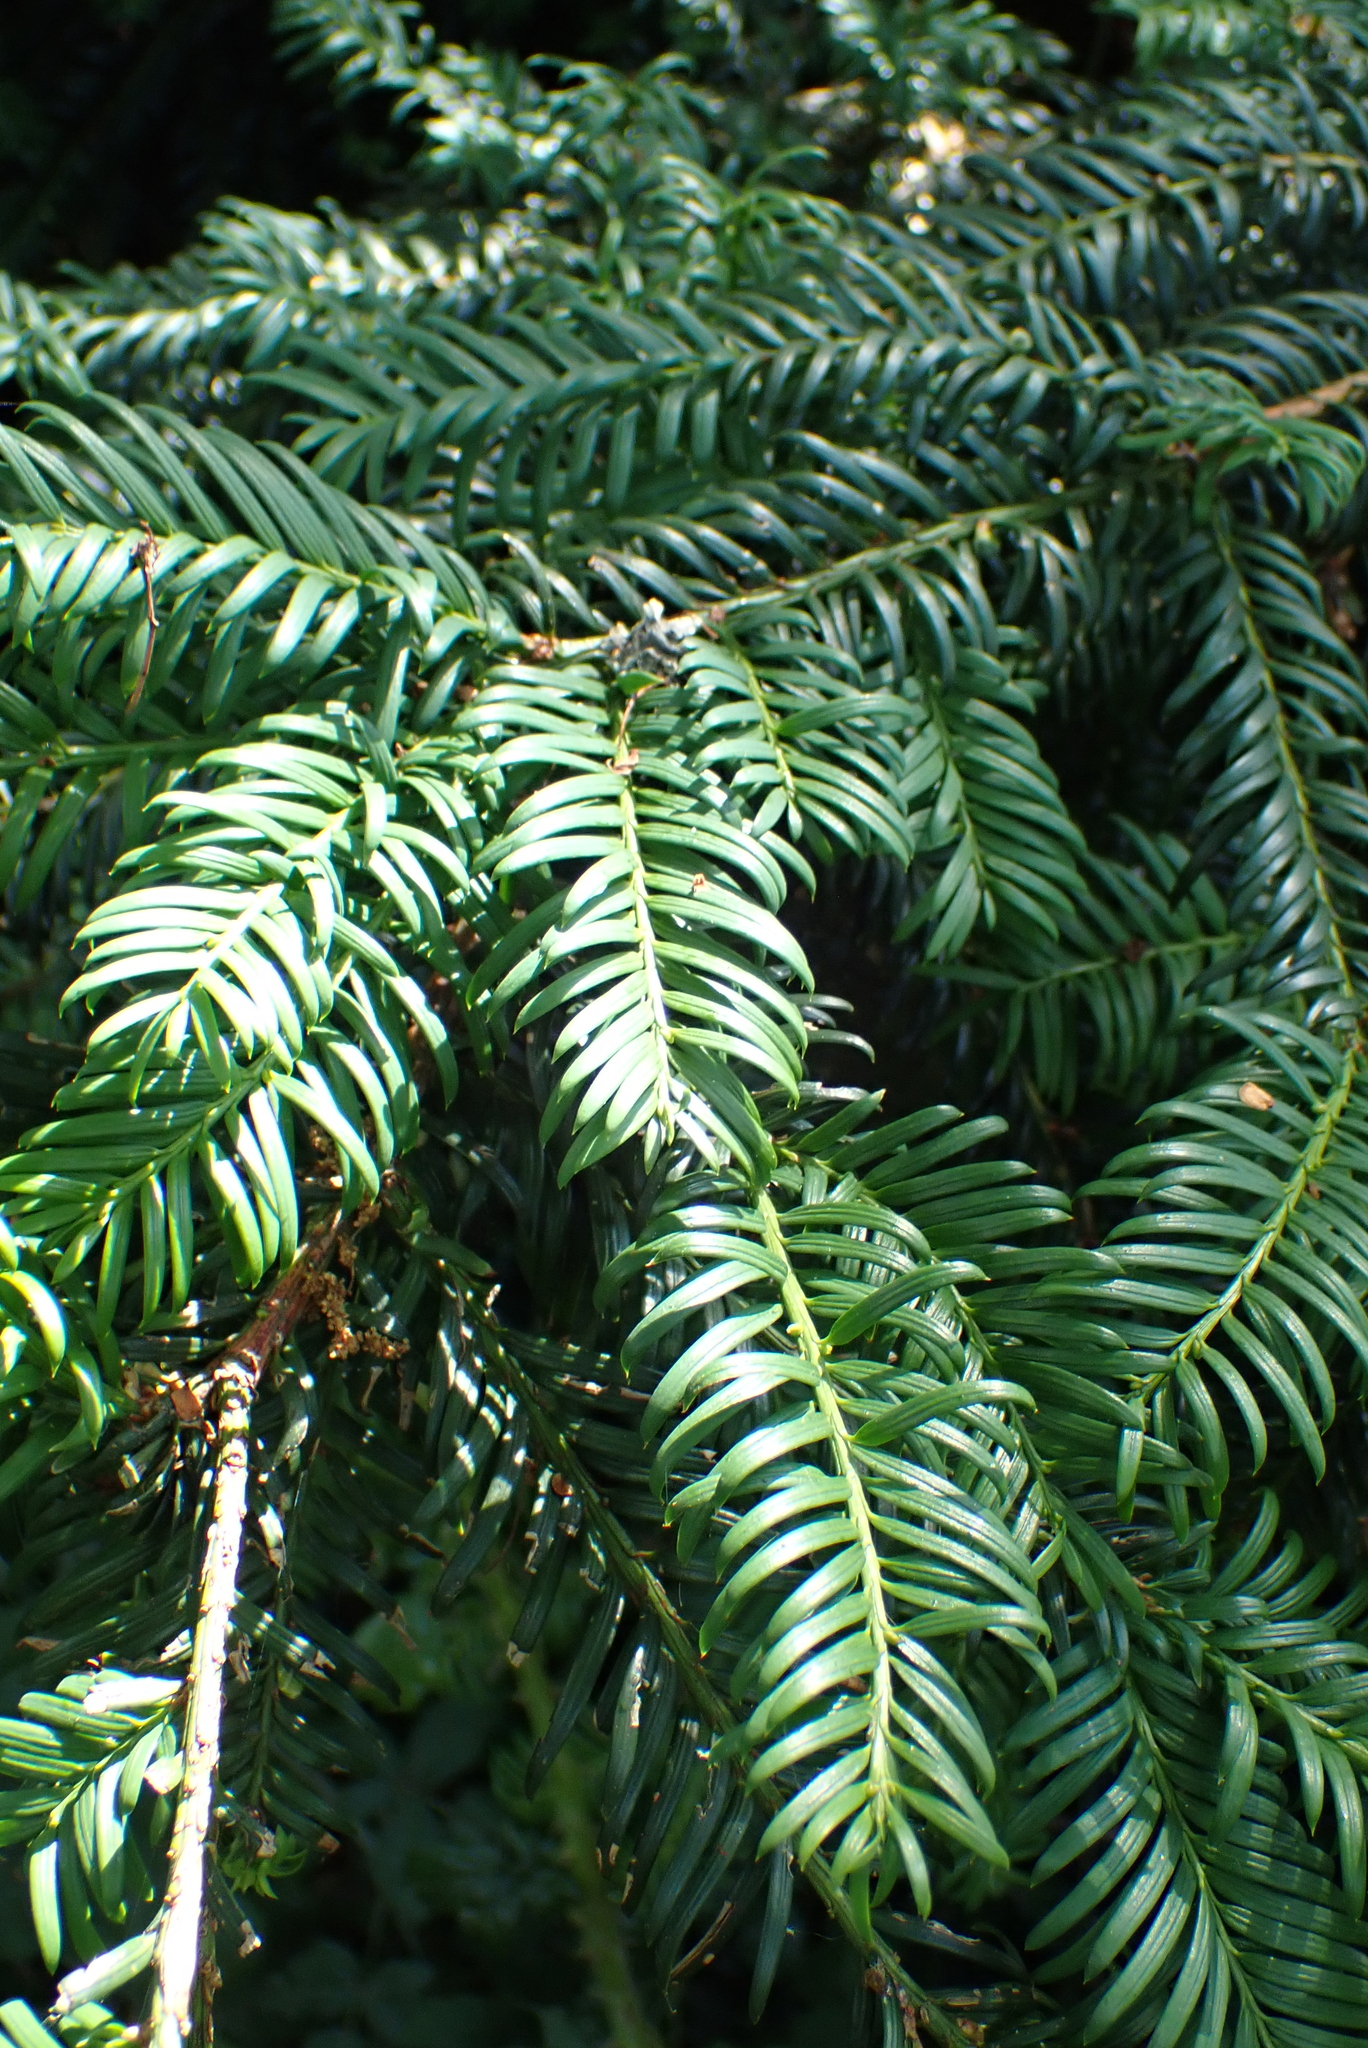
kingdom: Plantae
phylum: Tracheophyta
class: Pinopsida
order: Pinales
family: Taxaceae
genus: Taxus
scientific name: Taxus baccata
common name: Yew
